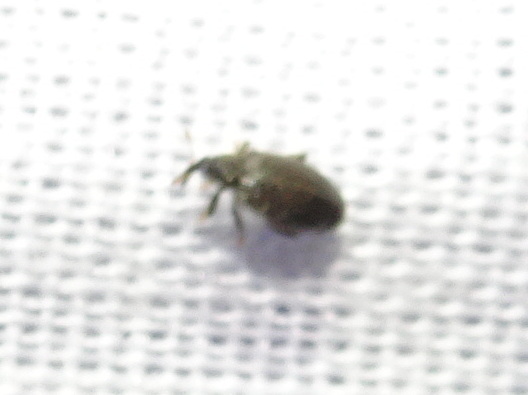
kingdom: Animalia
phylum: Arthropoda
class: Insecta
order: Coleoptera
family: Curculionidae
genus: Orchestes
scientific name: Orchestes fagi
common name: Beech leaf miner
